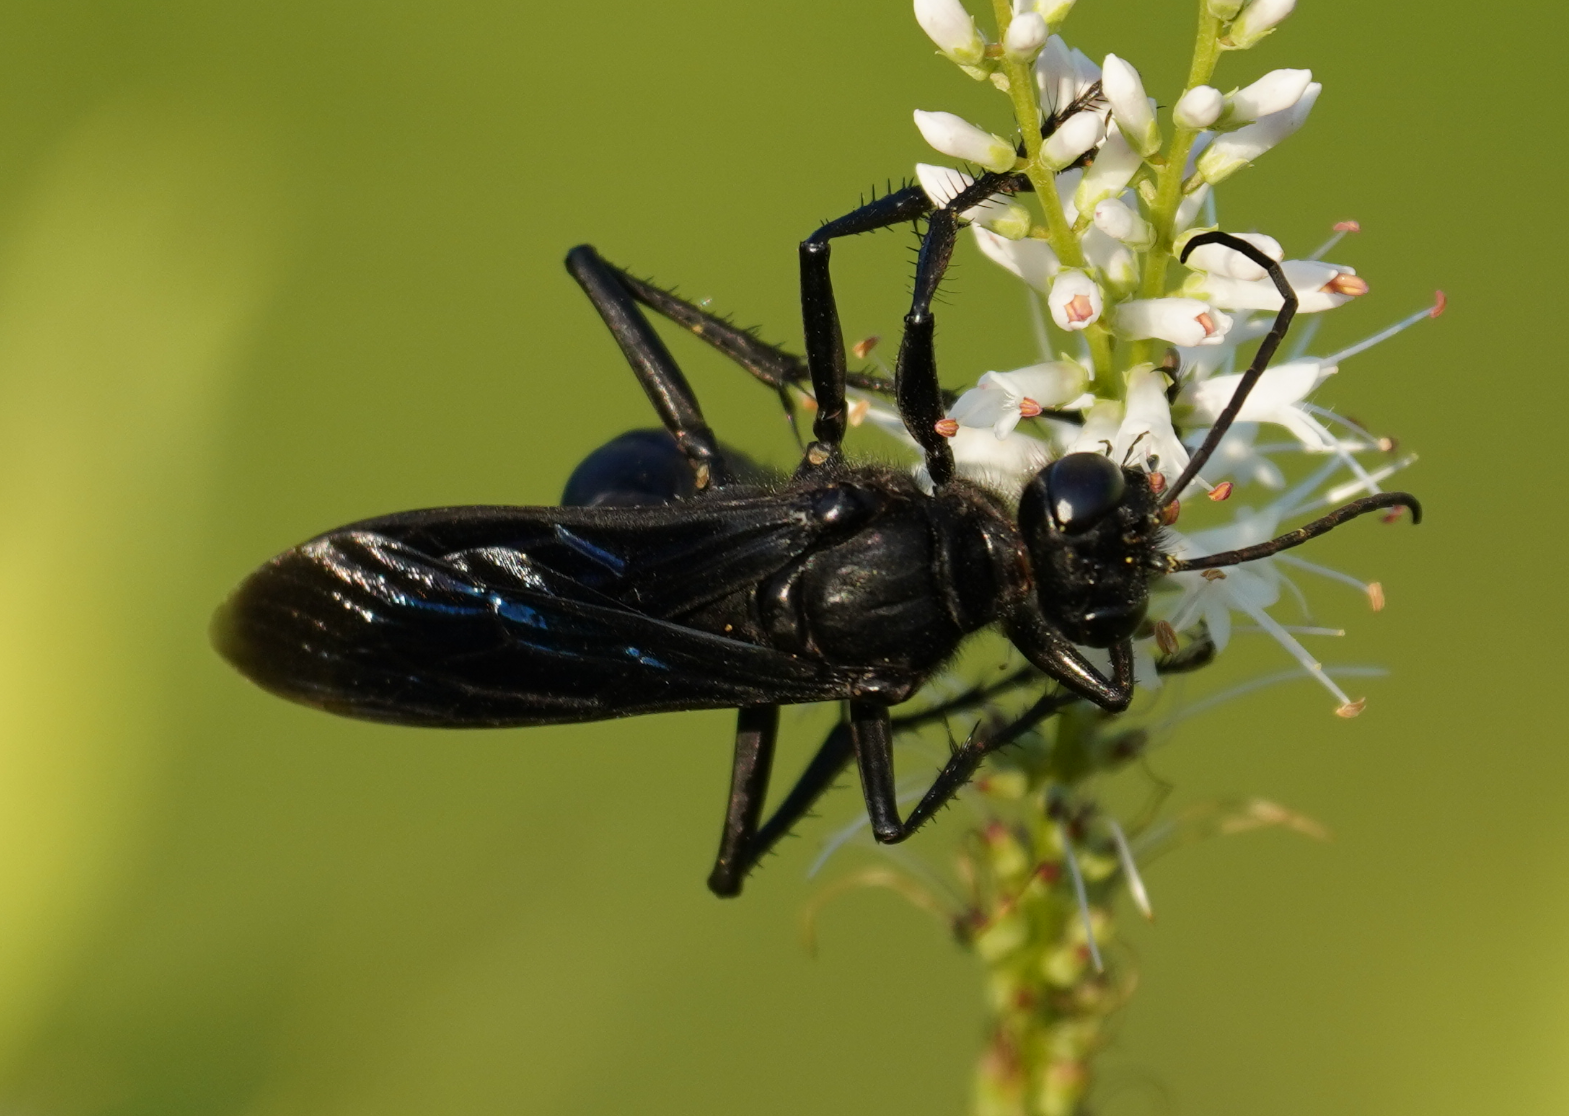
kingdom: Animalia
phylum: Arthropoda
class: Insecta
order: Hymenoptera
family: Sphecidae
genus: Sphex
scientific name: Sphex pensylvanicus
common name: Great black digger wasp
